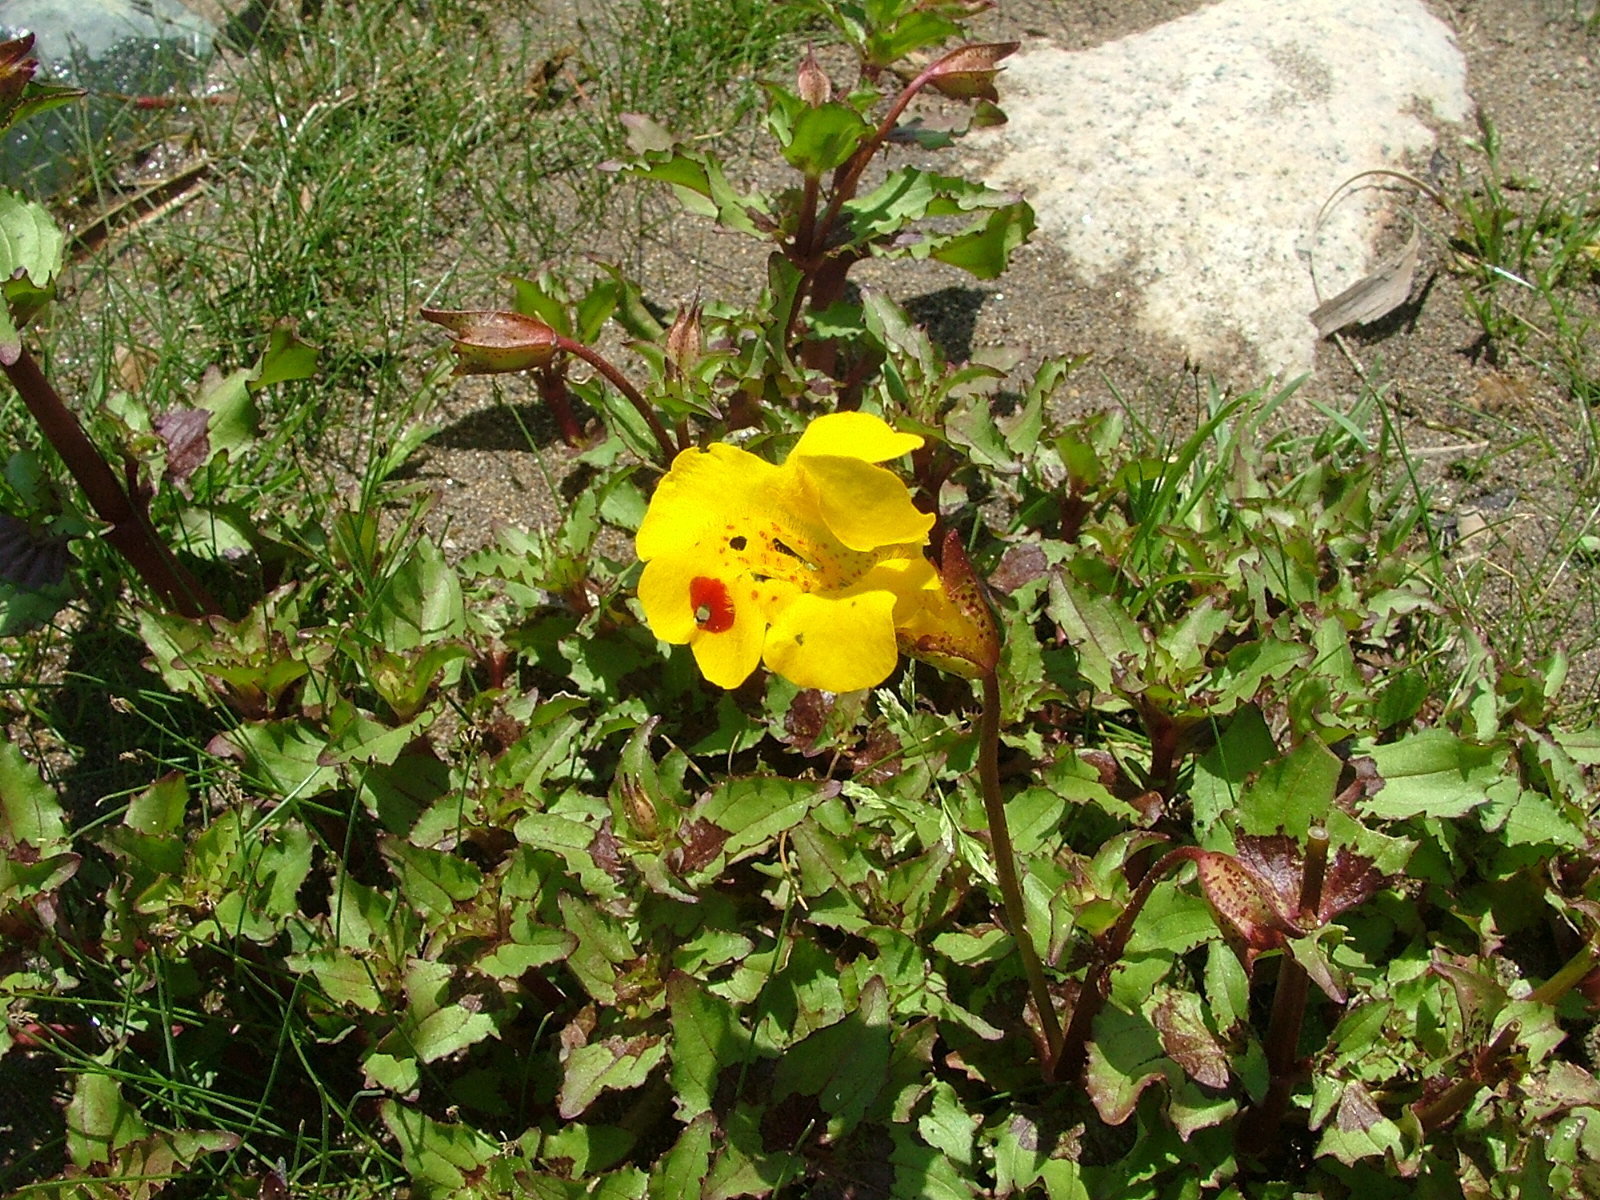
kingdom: Plantae
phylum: Tracheophyta
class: Magnoliopsida
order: Lamiales
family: Phrymaceae
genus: Erythranthe
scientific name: Erythranthe lutea
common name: Yellow monkey-flower
